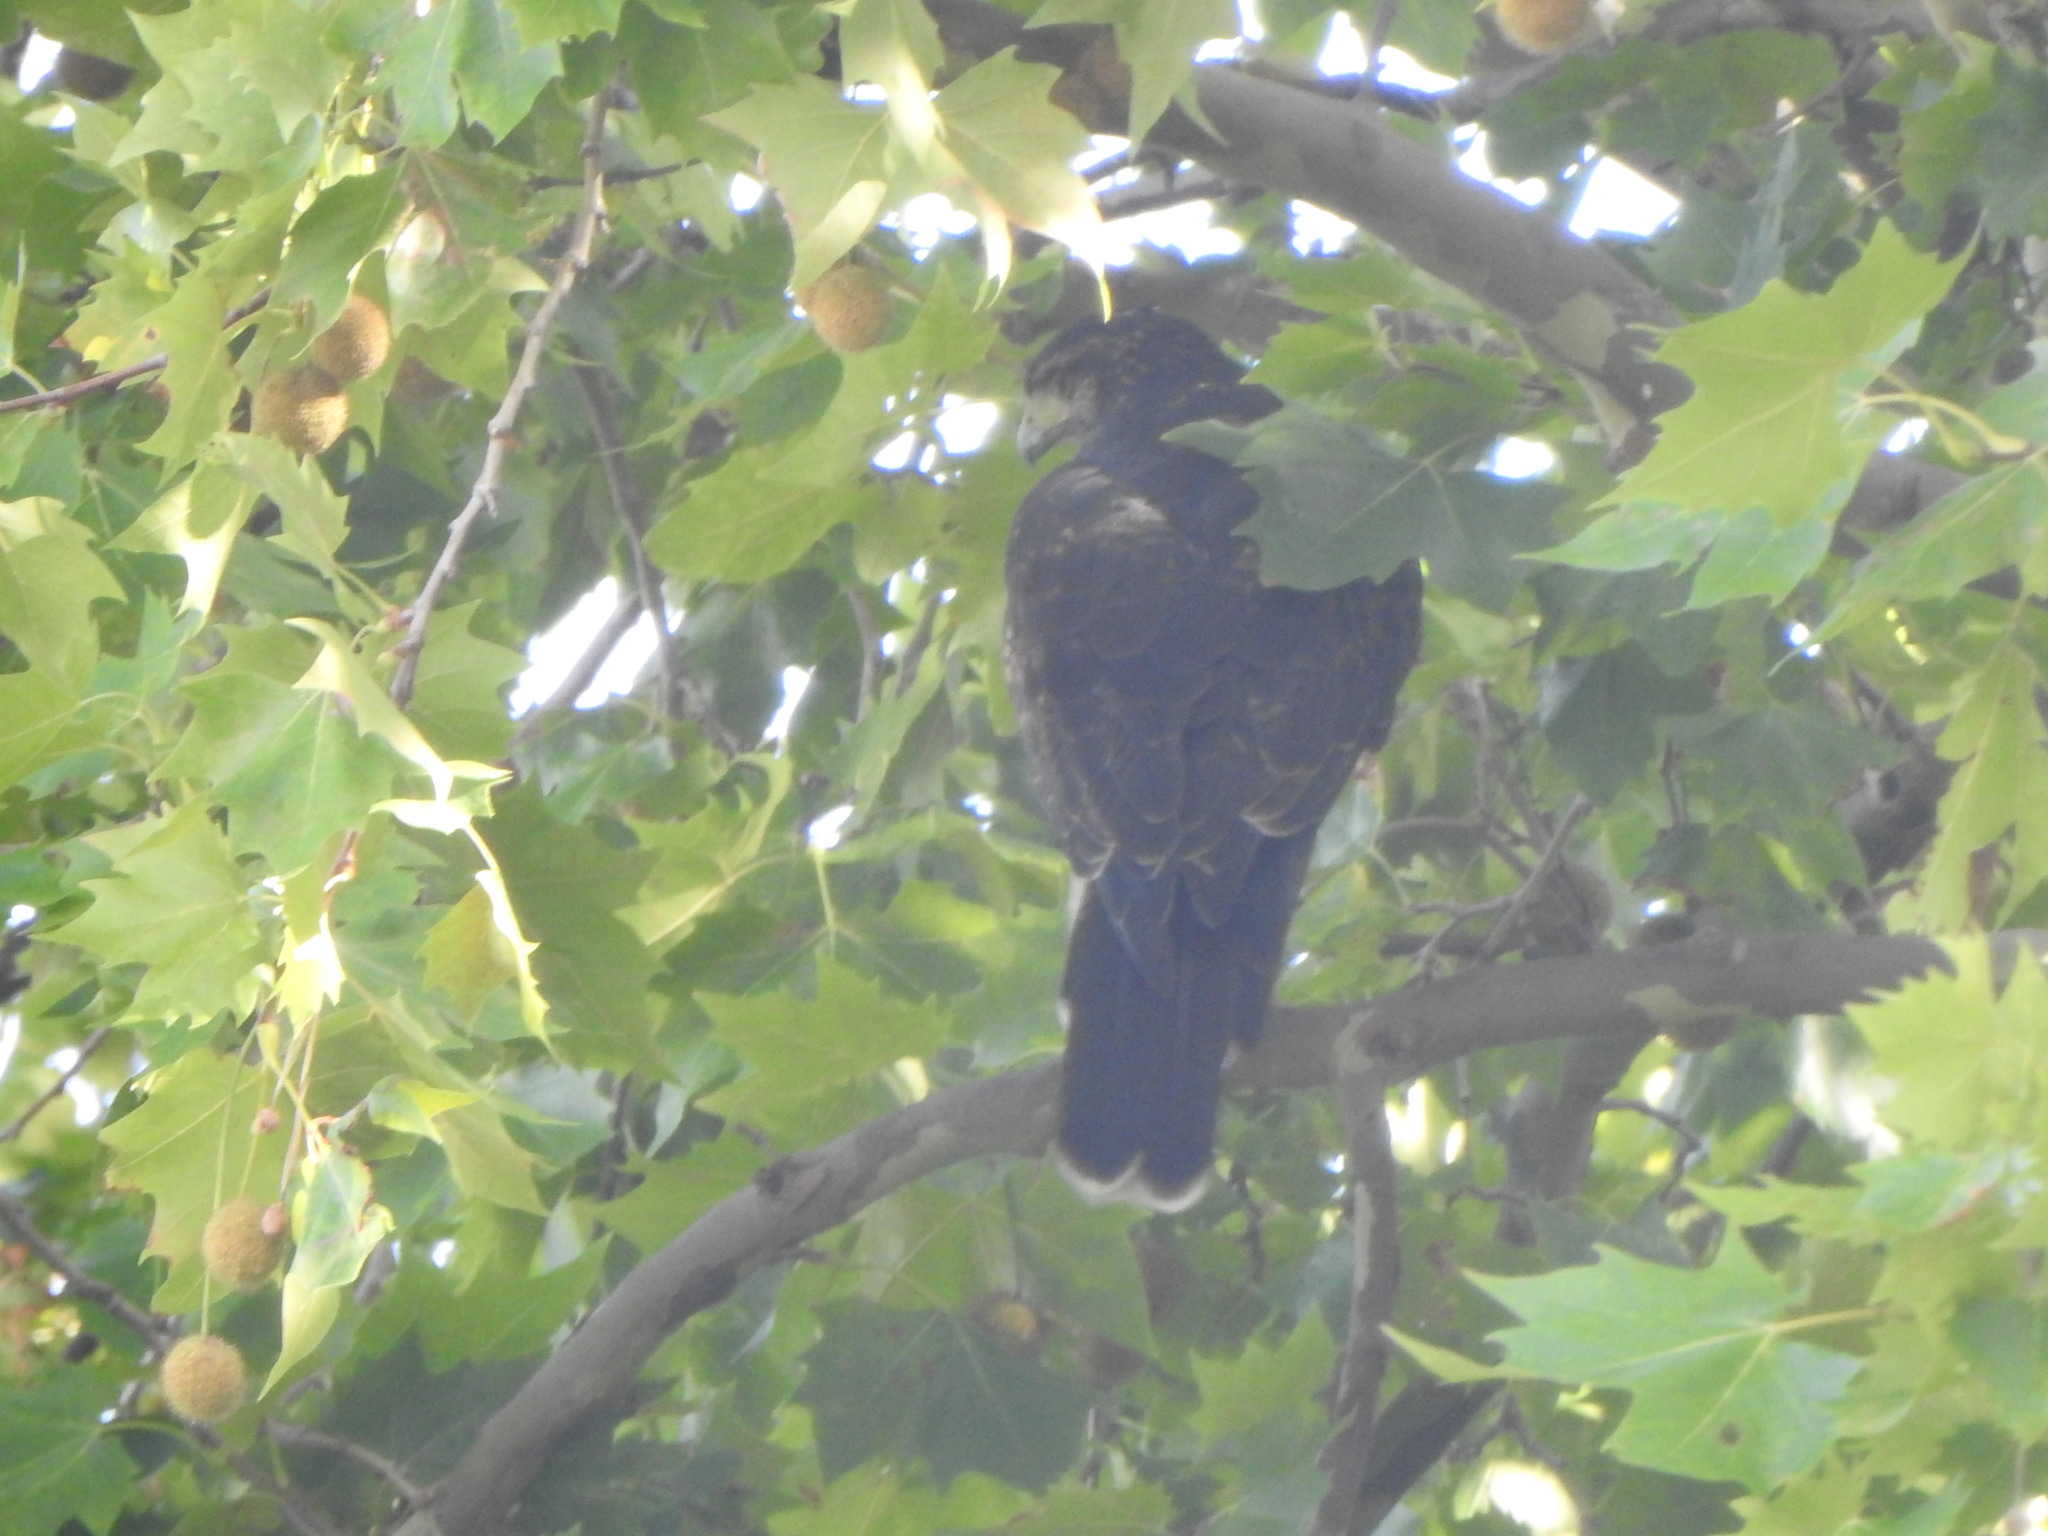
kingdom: Animalia
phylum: Chordata
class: Aves
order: Accipitriformes
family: Accipitridae
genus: Parabuteo
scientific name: Parabuteo unicinctus
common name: Harris's hawk
